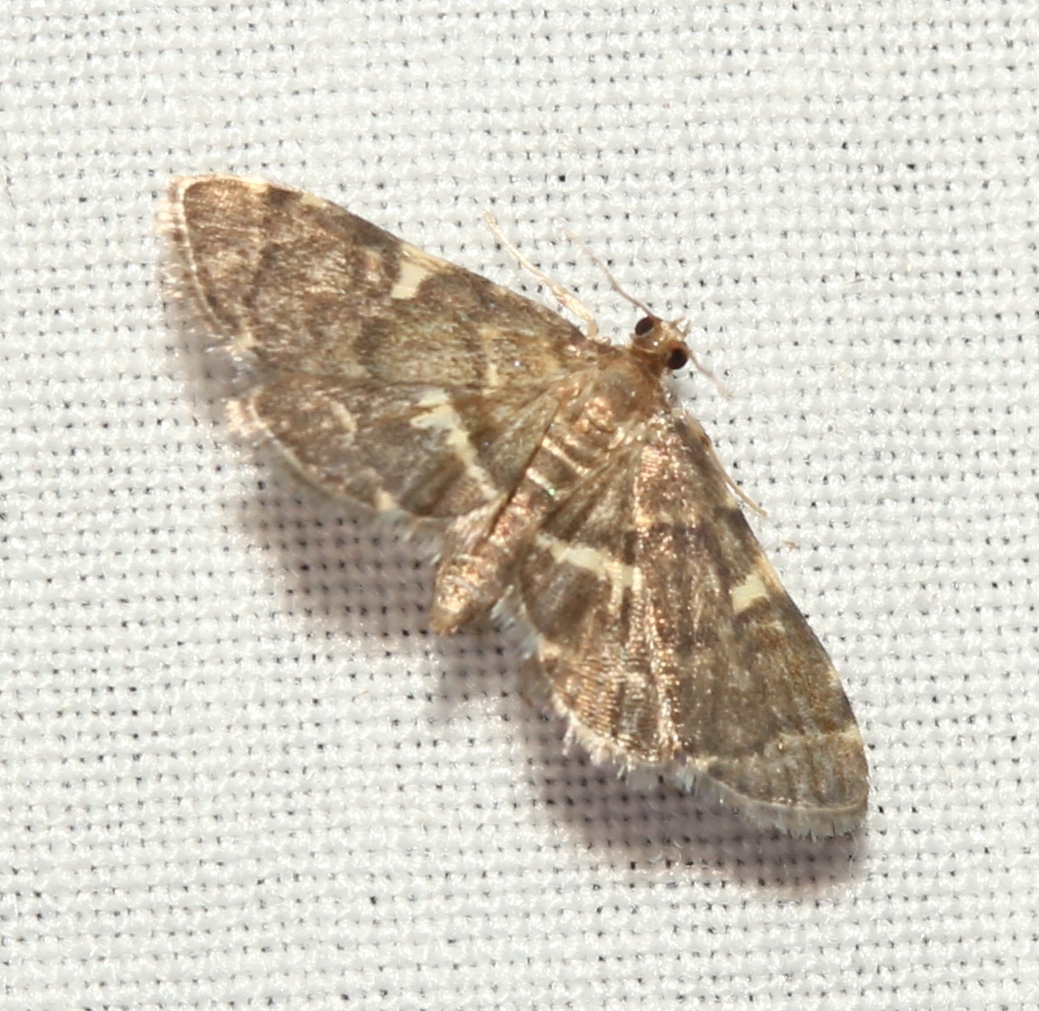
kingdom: Animalia
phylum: Arthropoda
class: Insecta
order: Lepidoptera
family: Crambidae
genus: Anageshna
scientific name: Anageshna primordialis
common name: Yellow-spotted webworm moth
